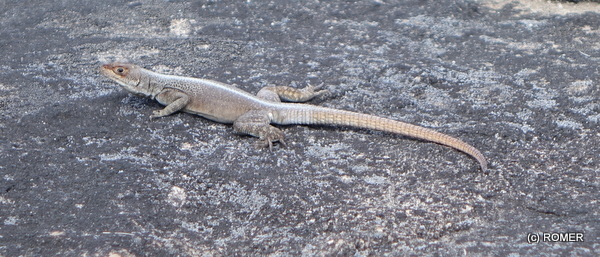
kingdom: Animalia
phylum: Chordata
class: Squamata
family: Opluridae
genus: Oplurus
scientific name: Oplurus grandidieri
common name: Grandidier's madagascar swift
